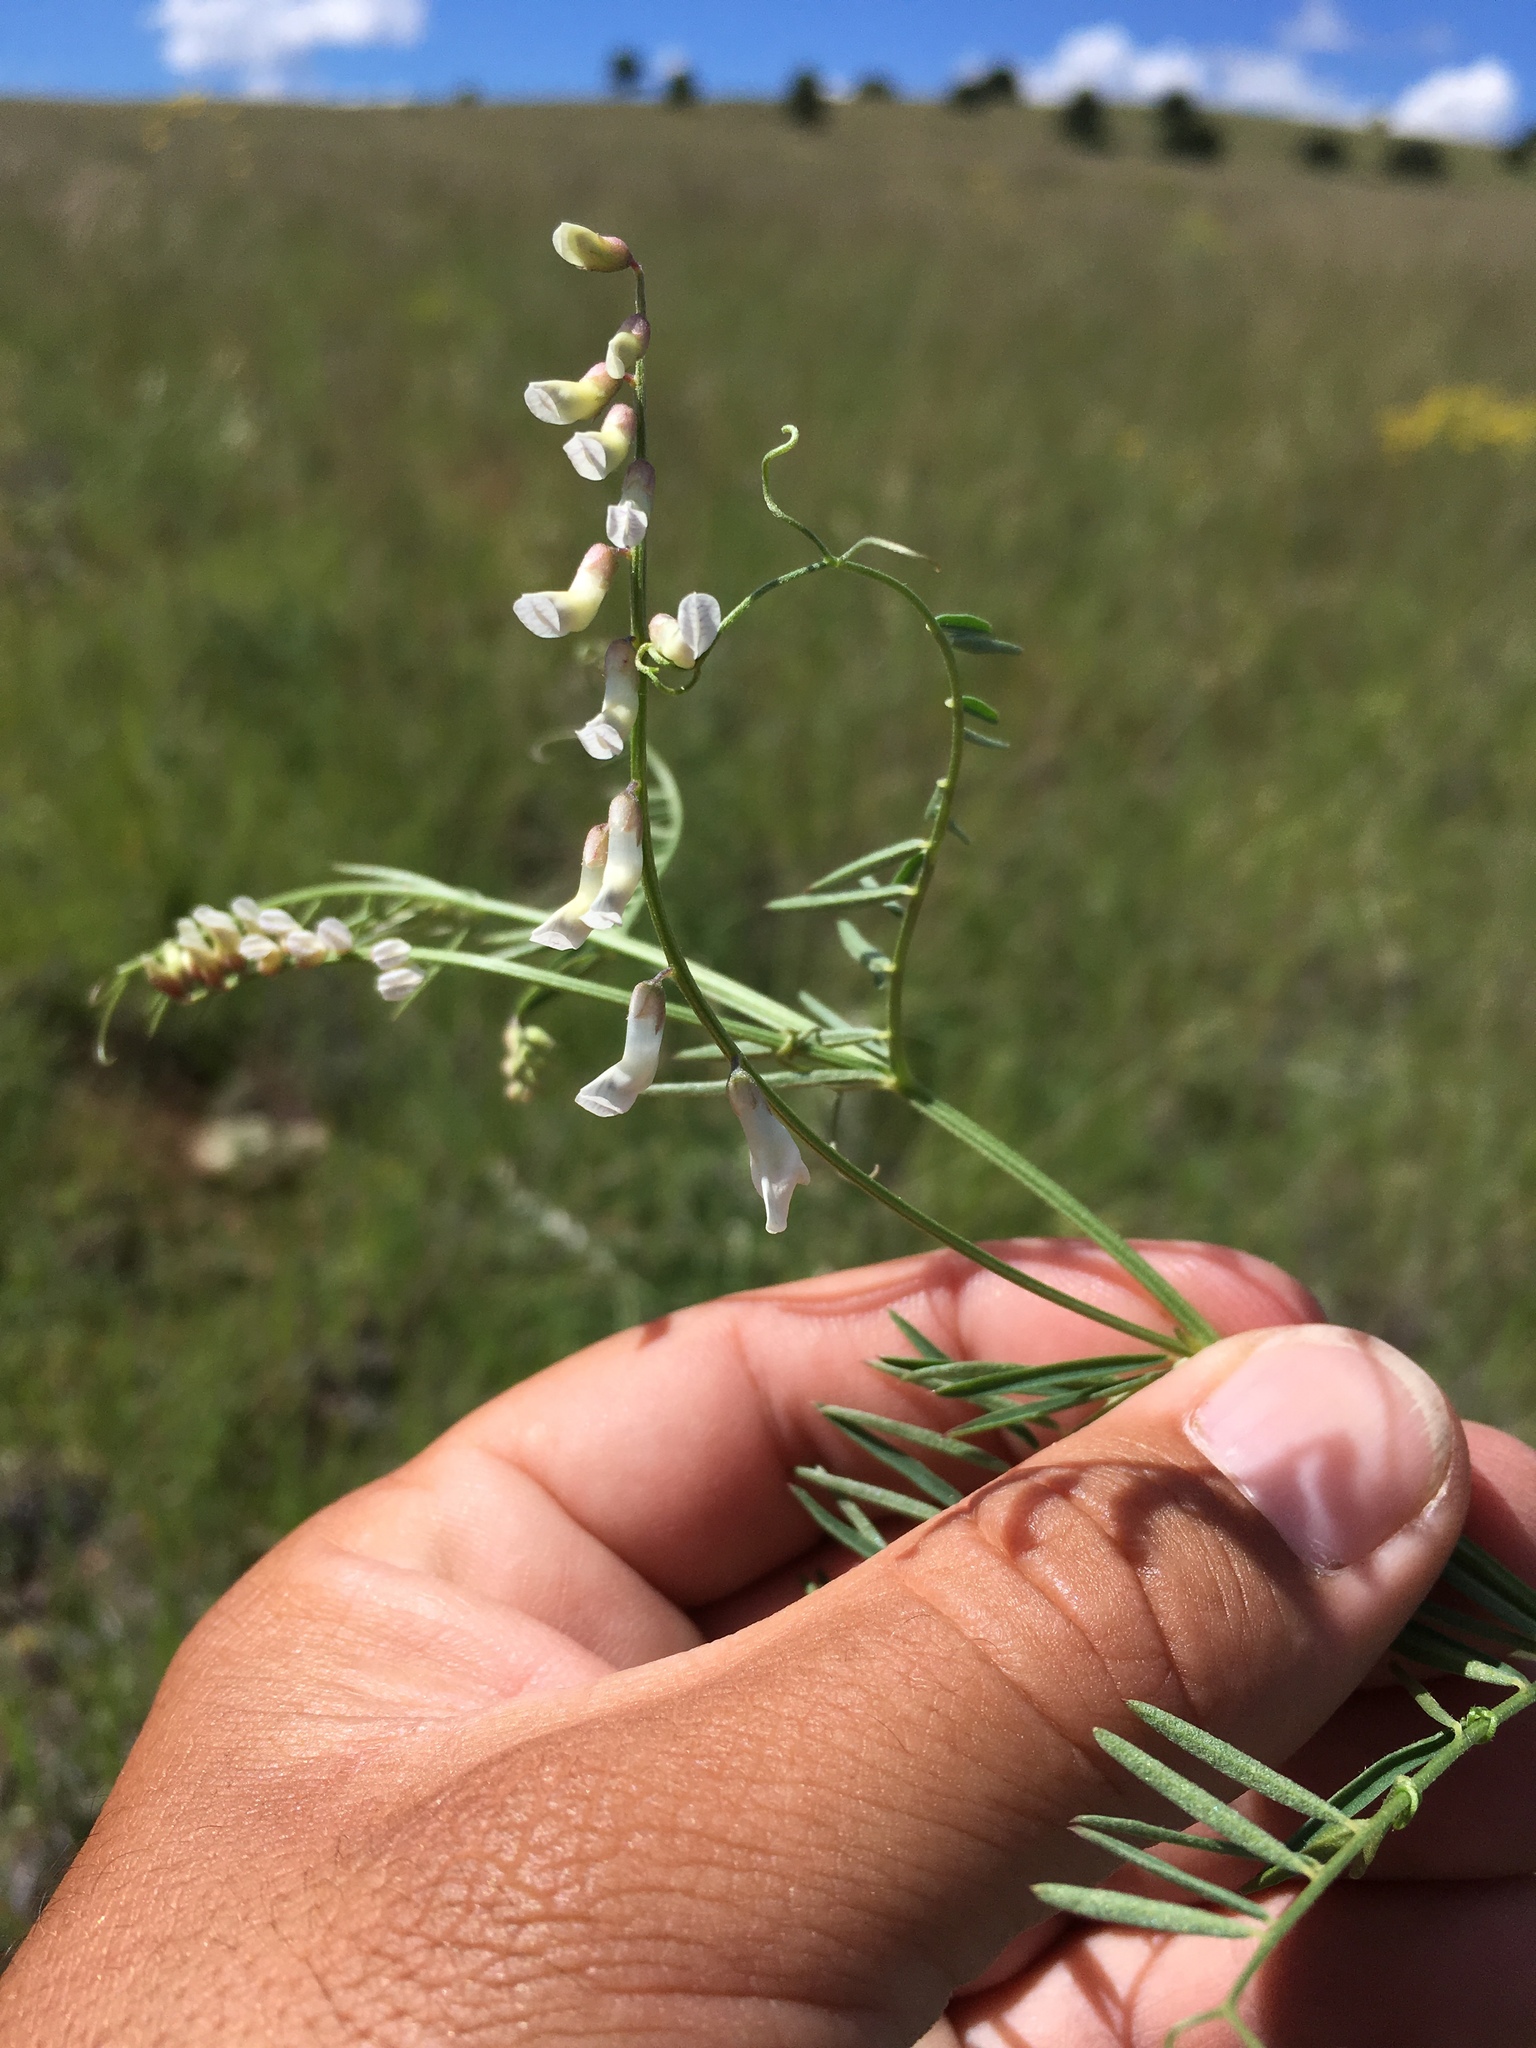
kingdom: Plantae
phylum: Tracheophyta
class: Magnoliopsida
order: Fabales
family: Fabaceae
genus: Vicia
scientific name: Vicia pulchella
